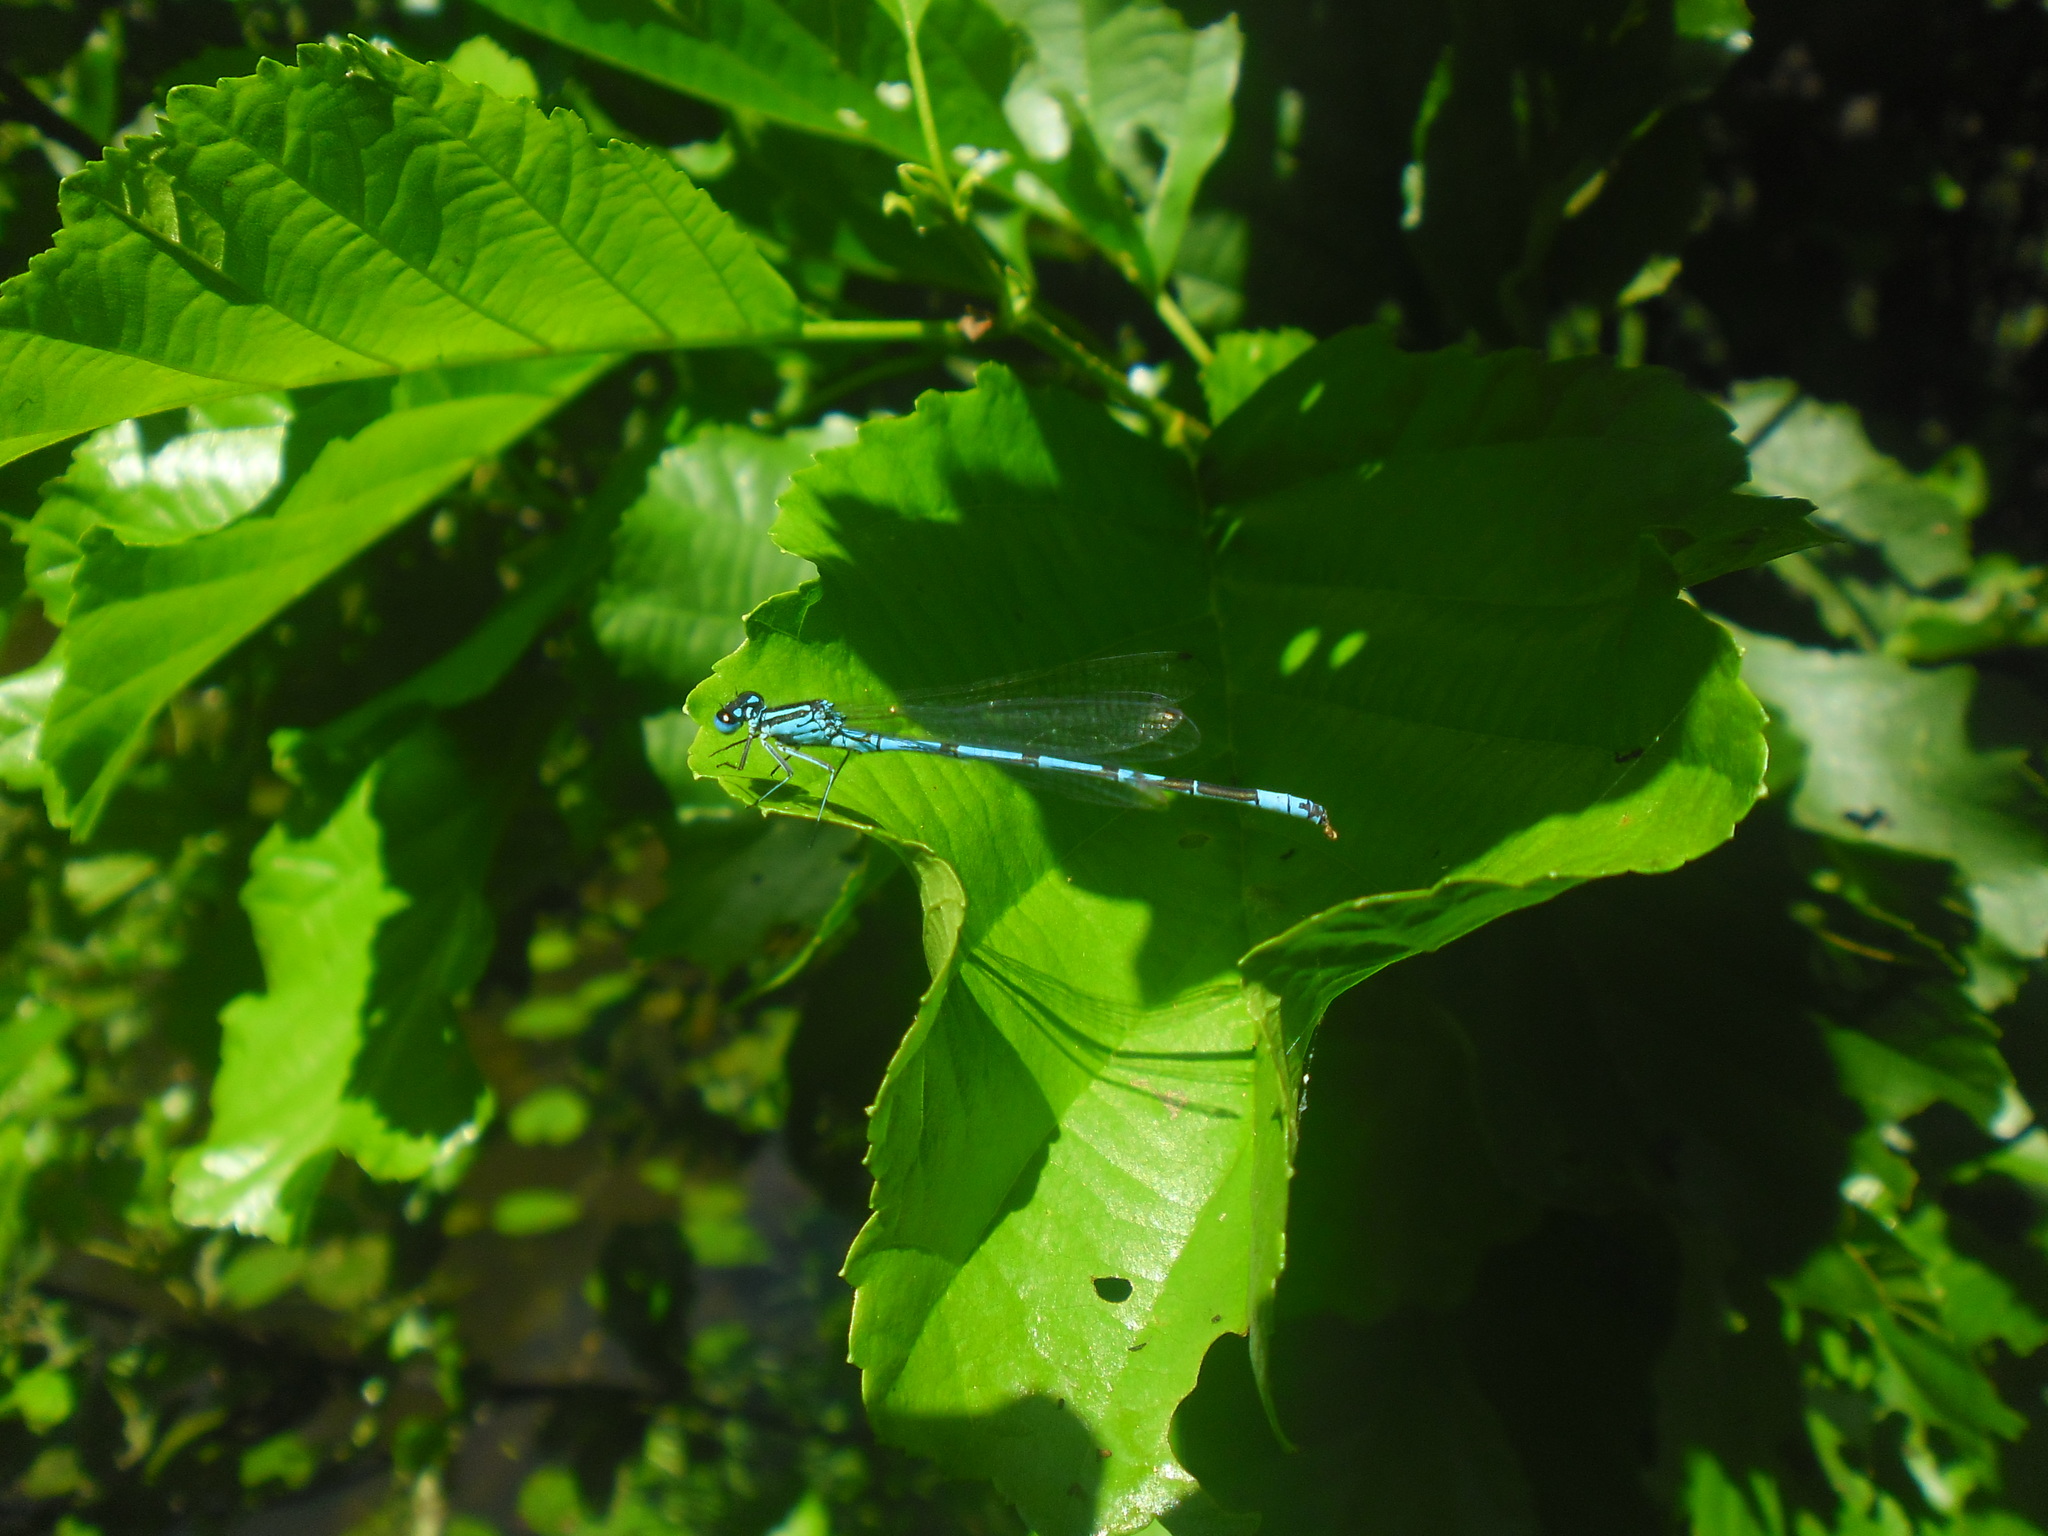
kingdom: Animalia
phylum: Arthropoda
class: Insecta
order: Odonata
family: Coenagrionidae
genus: Coenagrion
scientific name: Coenagrion puella
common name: Azure damselfly
